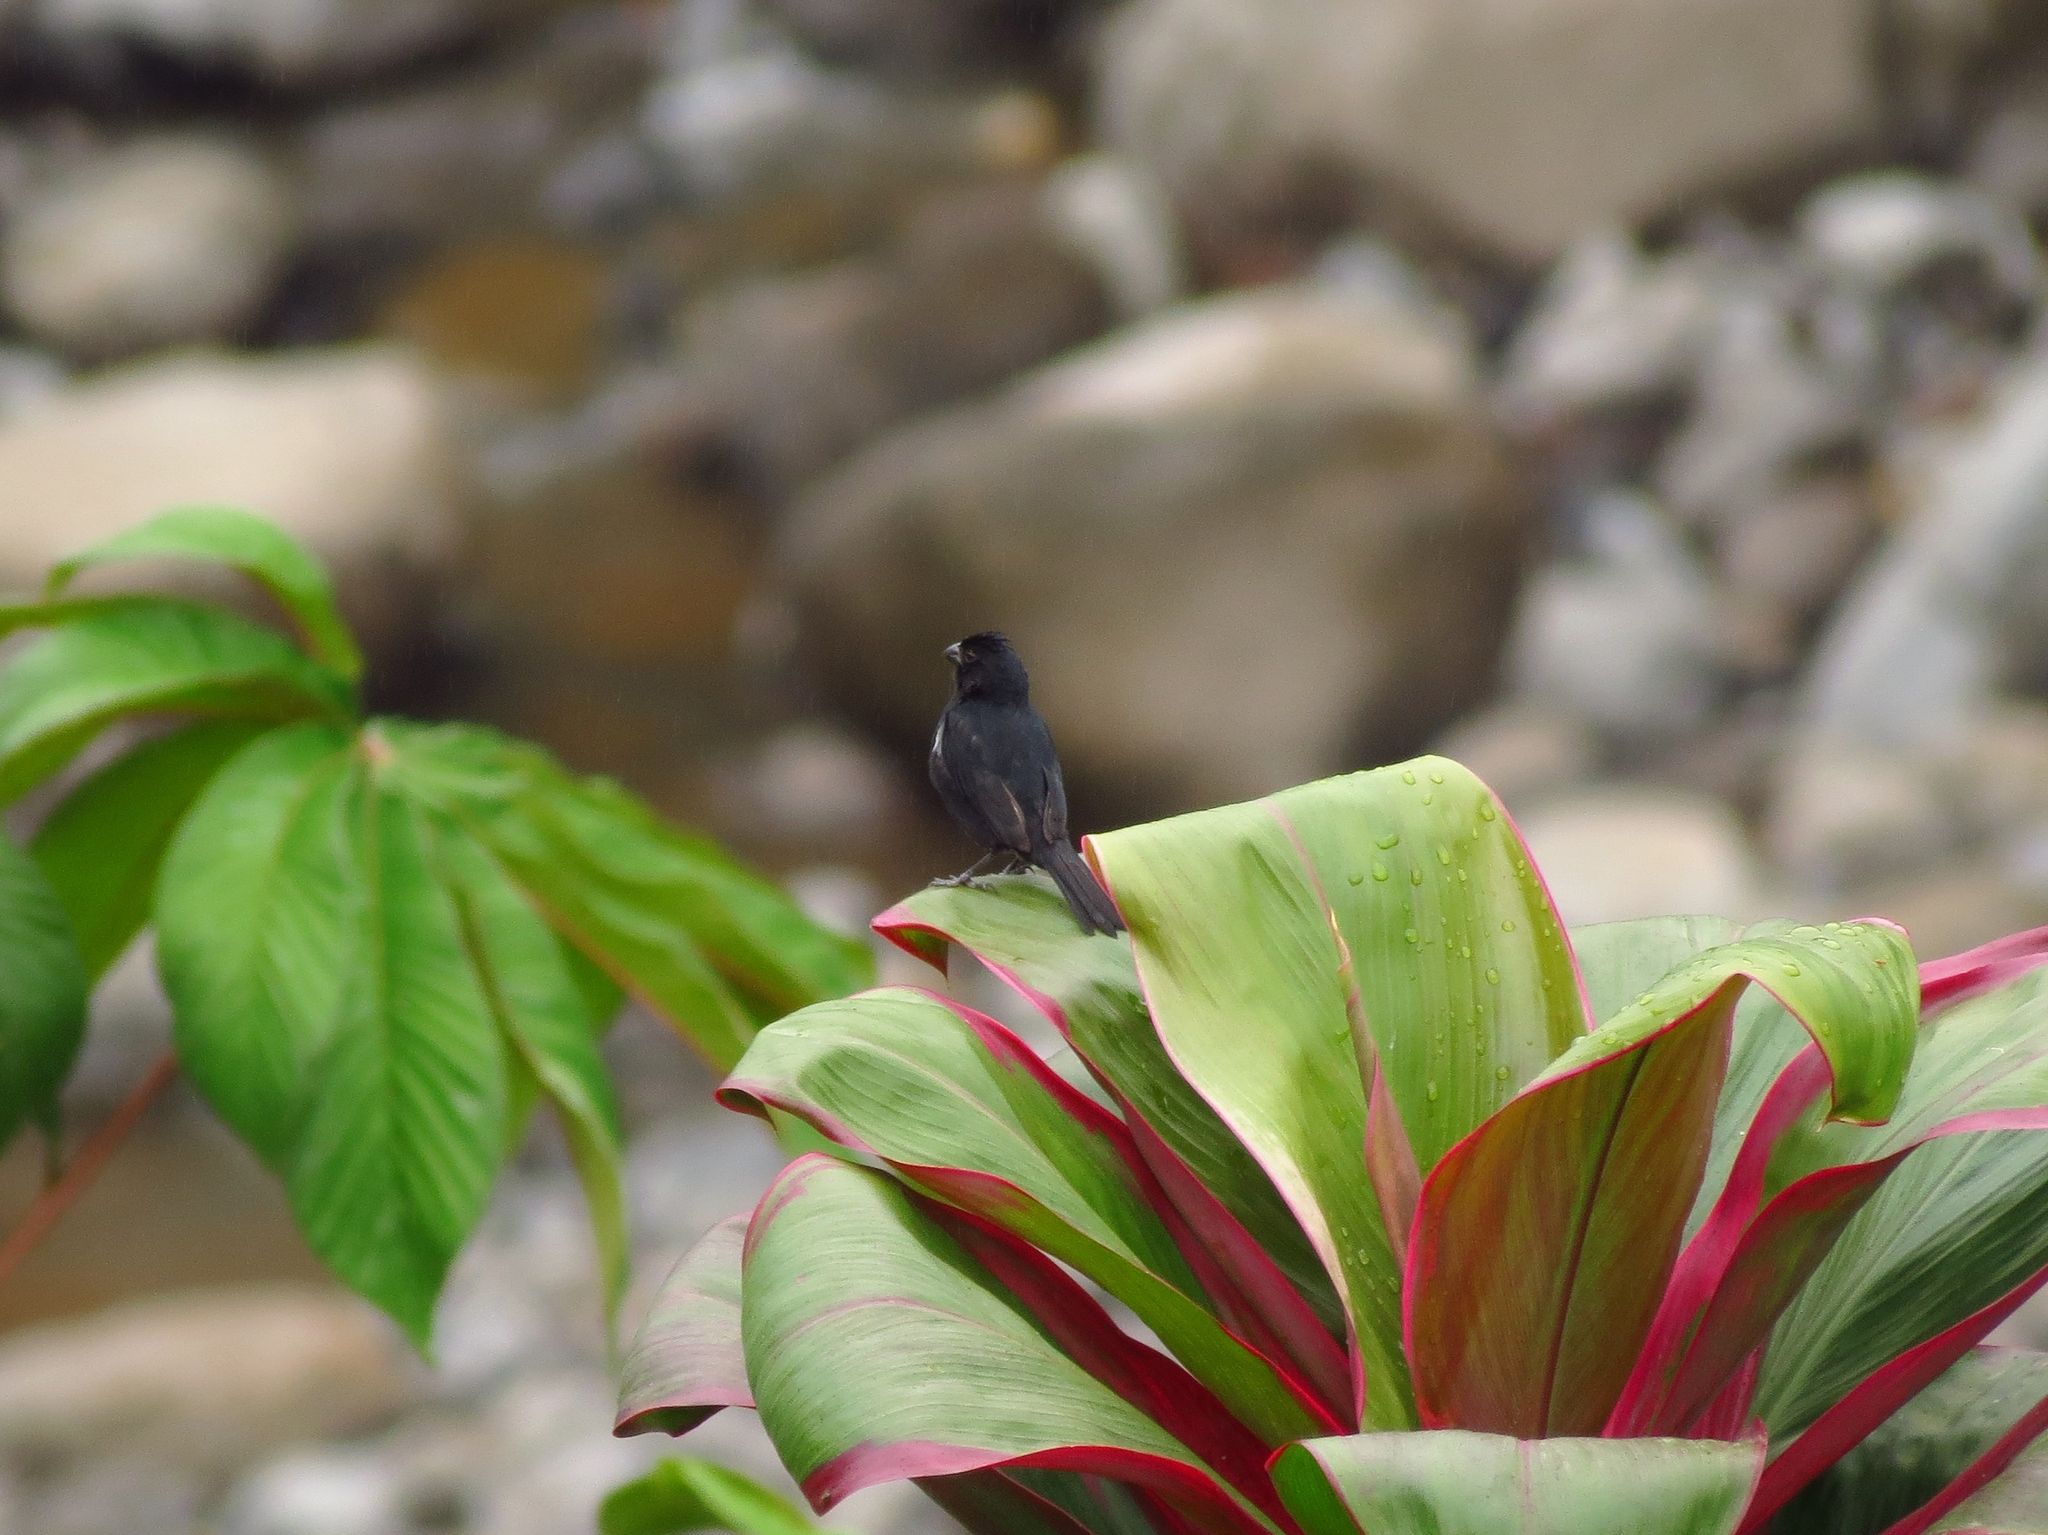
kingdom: Animalia
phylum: Chordata
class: Aves
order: Passeriformes
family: Thraupidae
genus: Sporophila
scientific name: Sporophila corvina
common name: Variable seedeater
